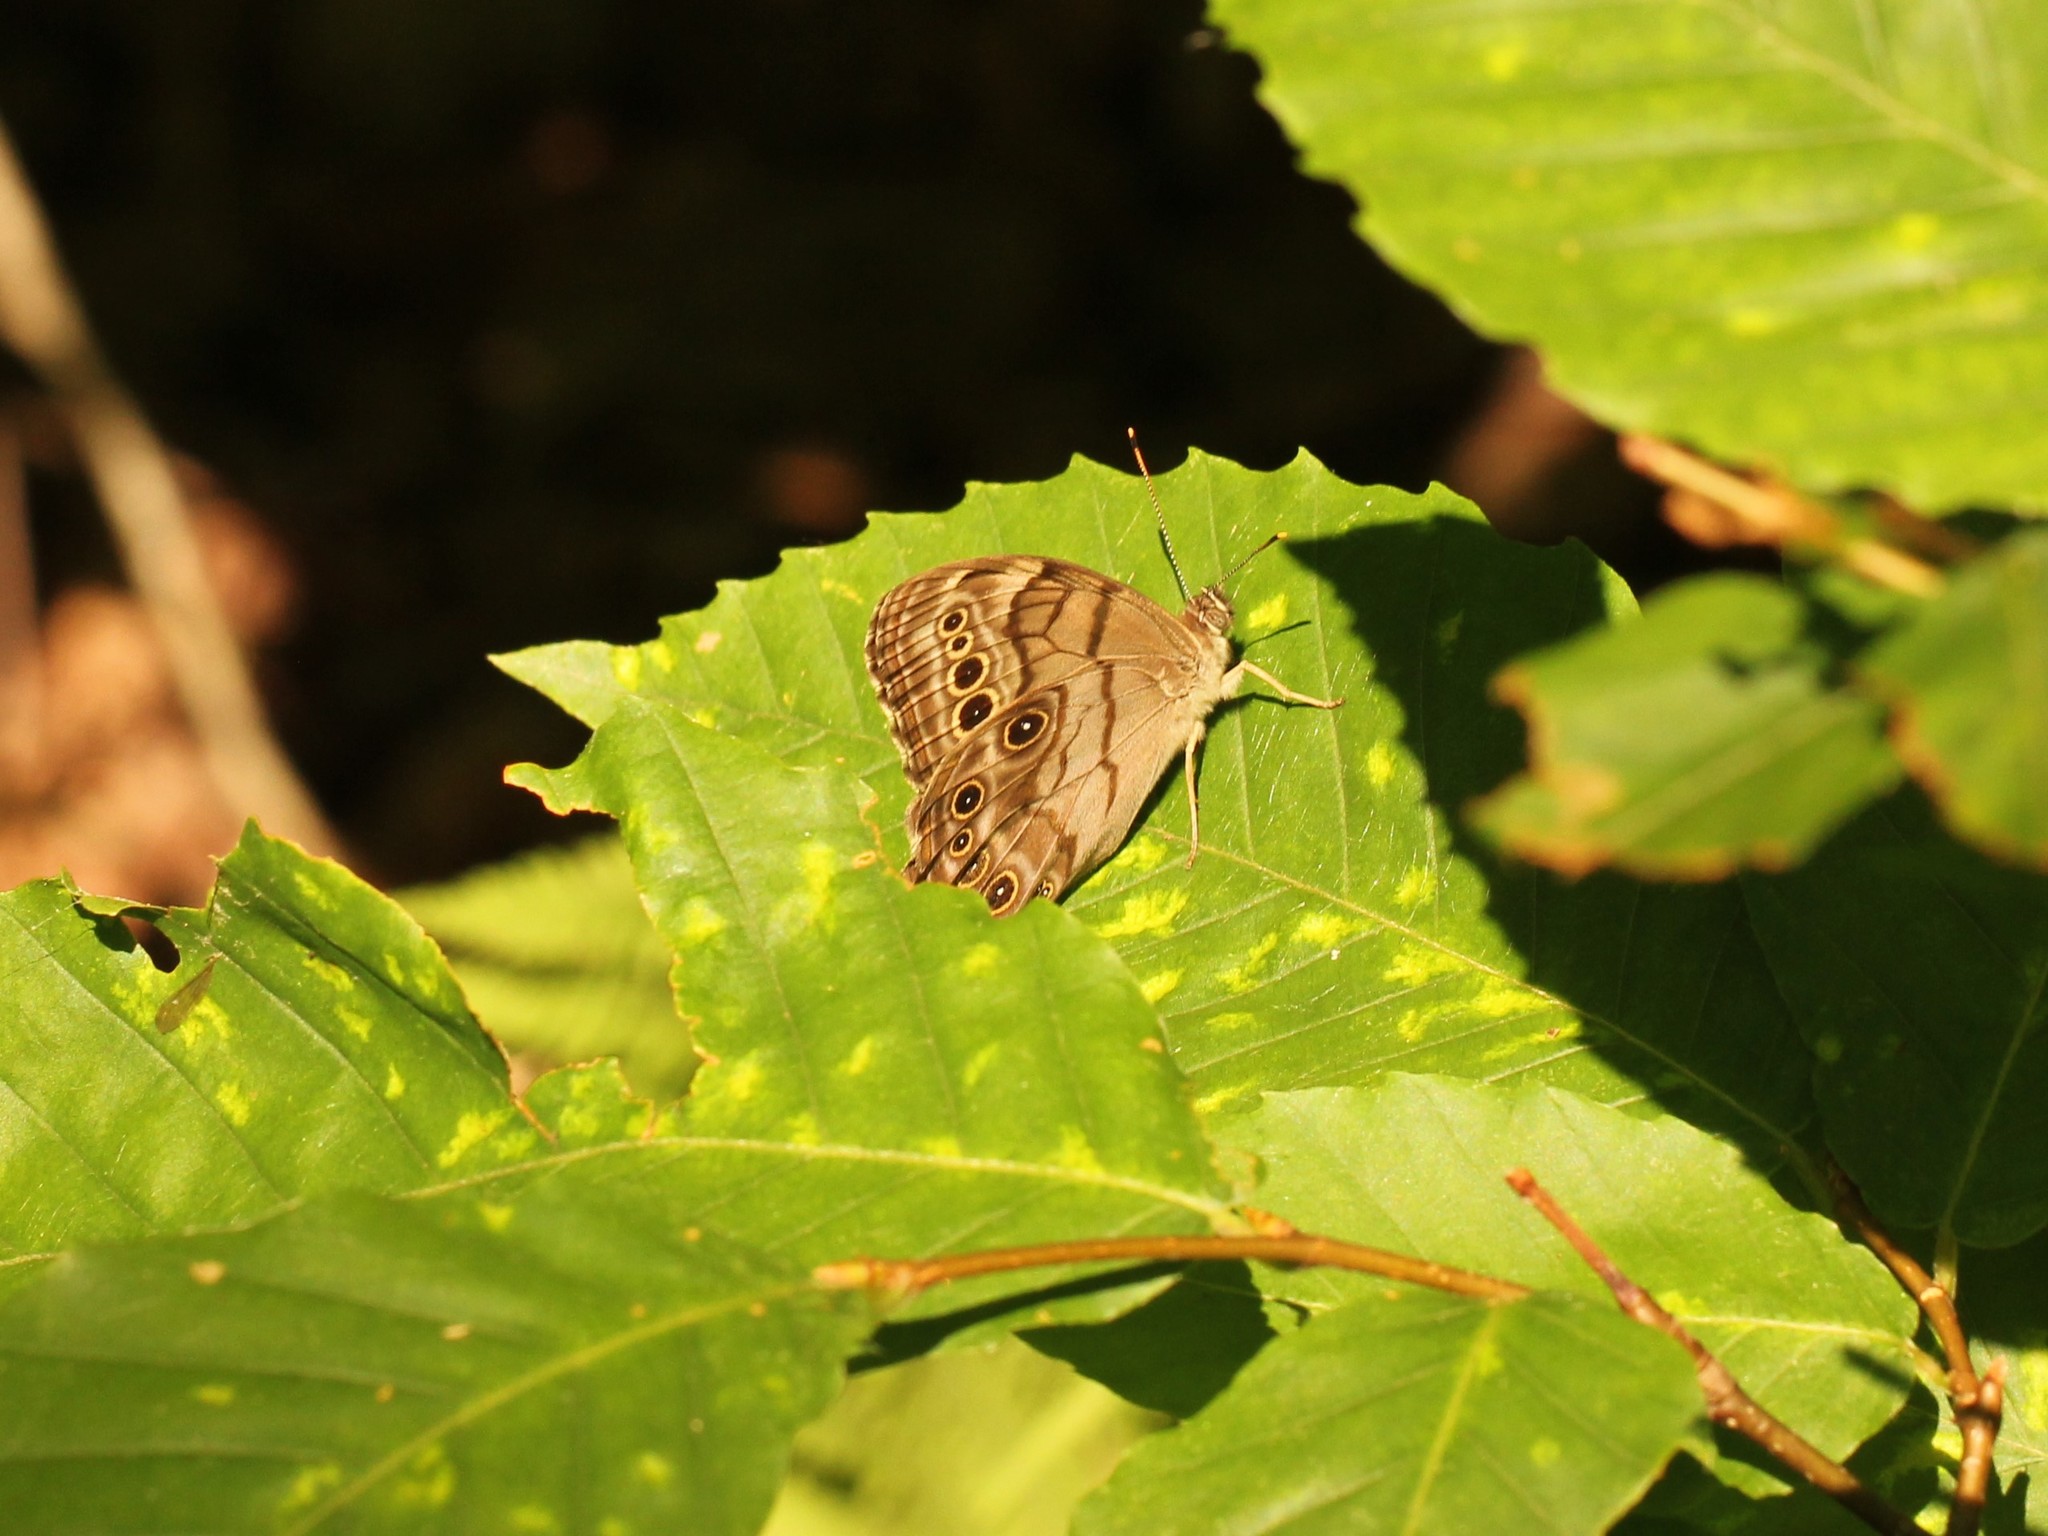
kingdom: Animalia
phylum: Arthropoda
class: Insecta
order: Lepidoptera
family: Nymphalidae
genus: Lethe
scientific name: Lethe anthedon
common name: Northern pearly-eye
